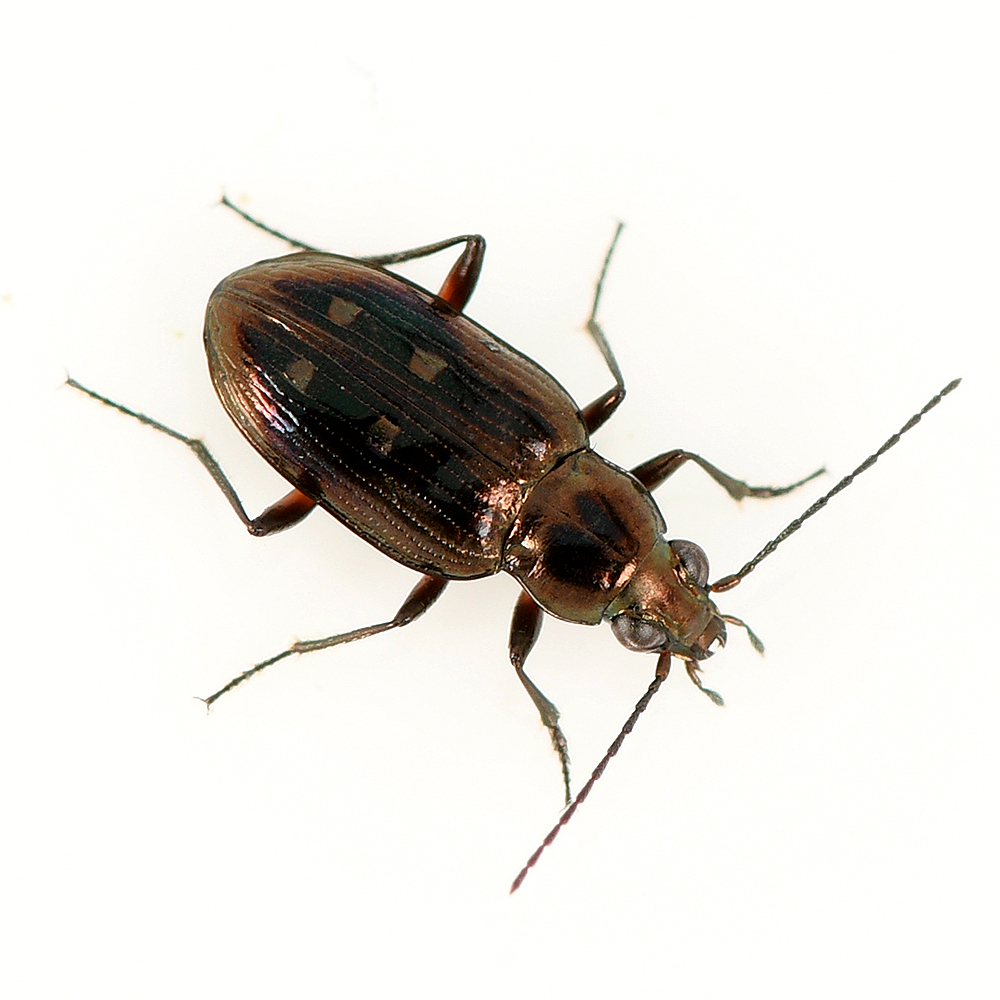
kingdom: Animalia
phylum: Arthropoda
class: Insecta
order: Coleoptera
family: Carabidae
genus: Bembidion
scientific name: Bembidion inaequale
